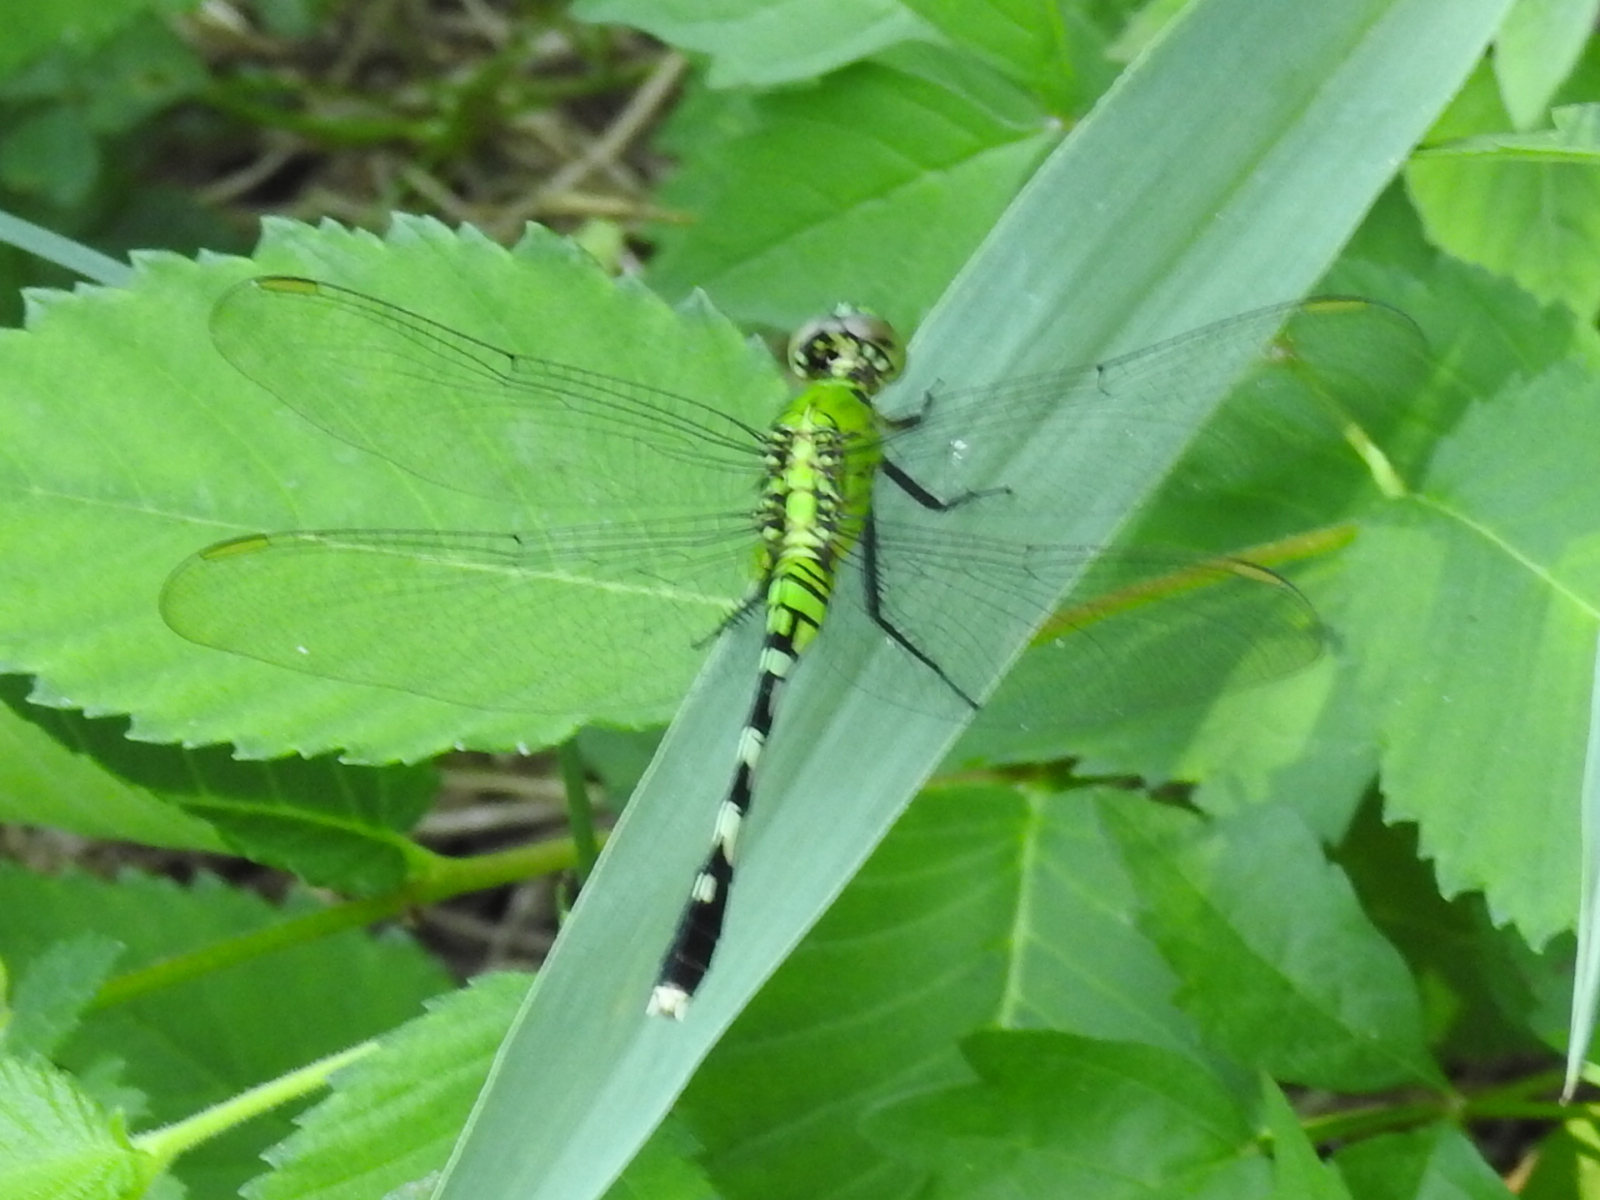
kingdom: Animalia
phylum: Arthropoda
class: Insecta
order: Odonata
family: Libellulidae
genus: Erythemis
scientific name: Erythemis simplicicollis
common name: Eastern pondhawk
